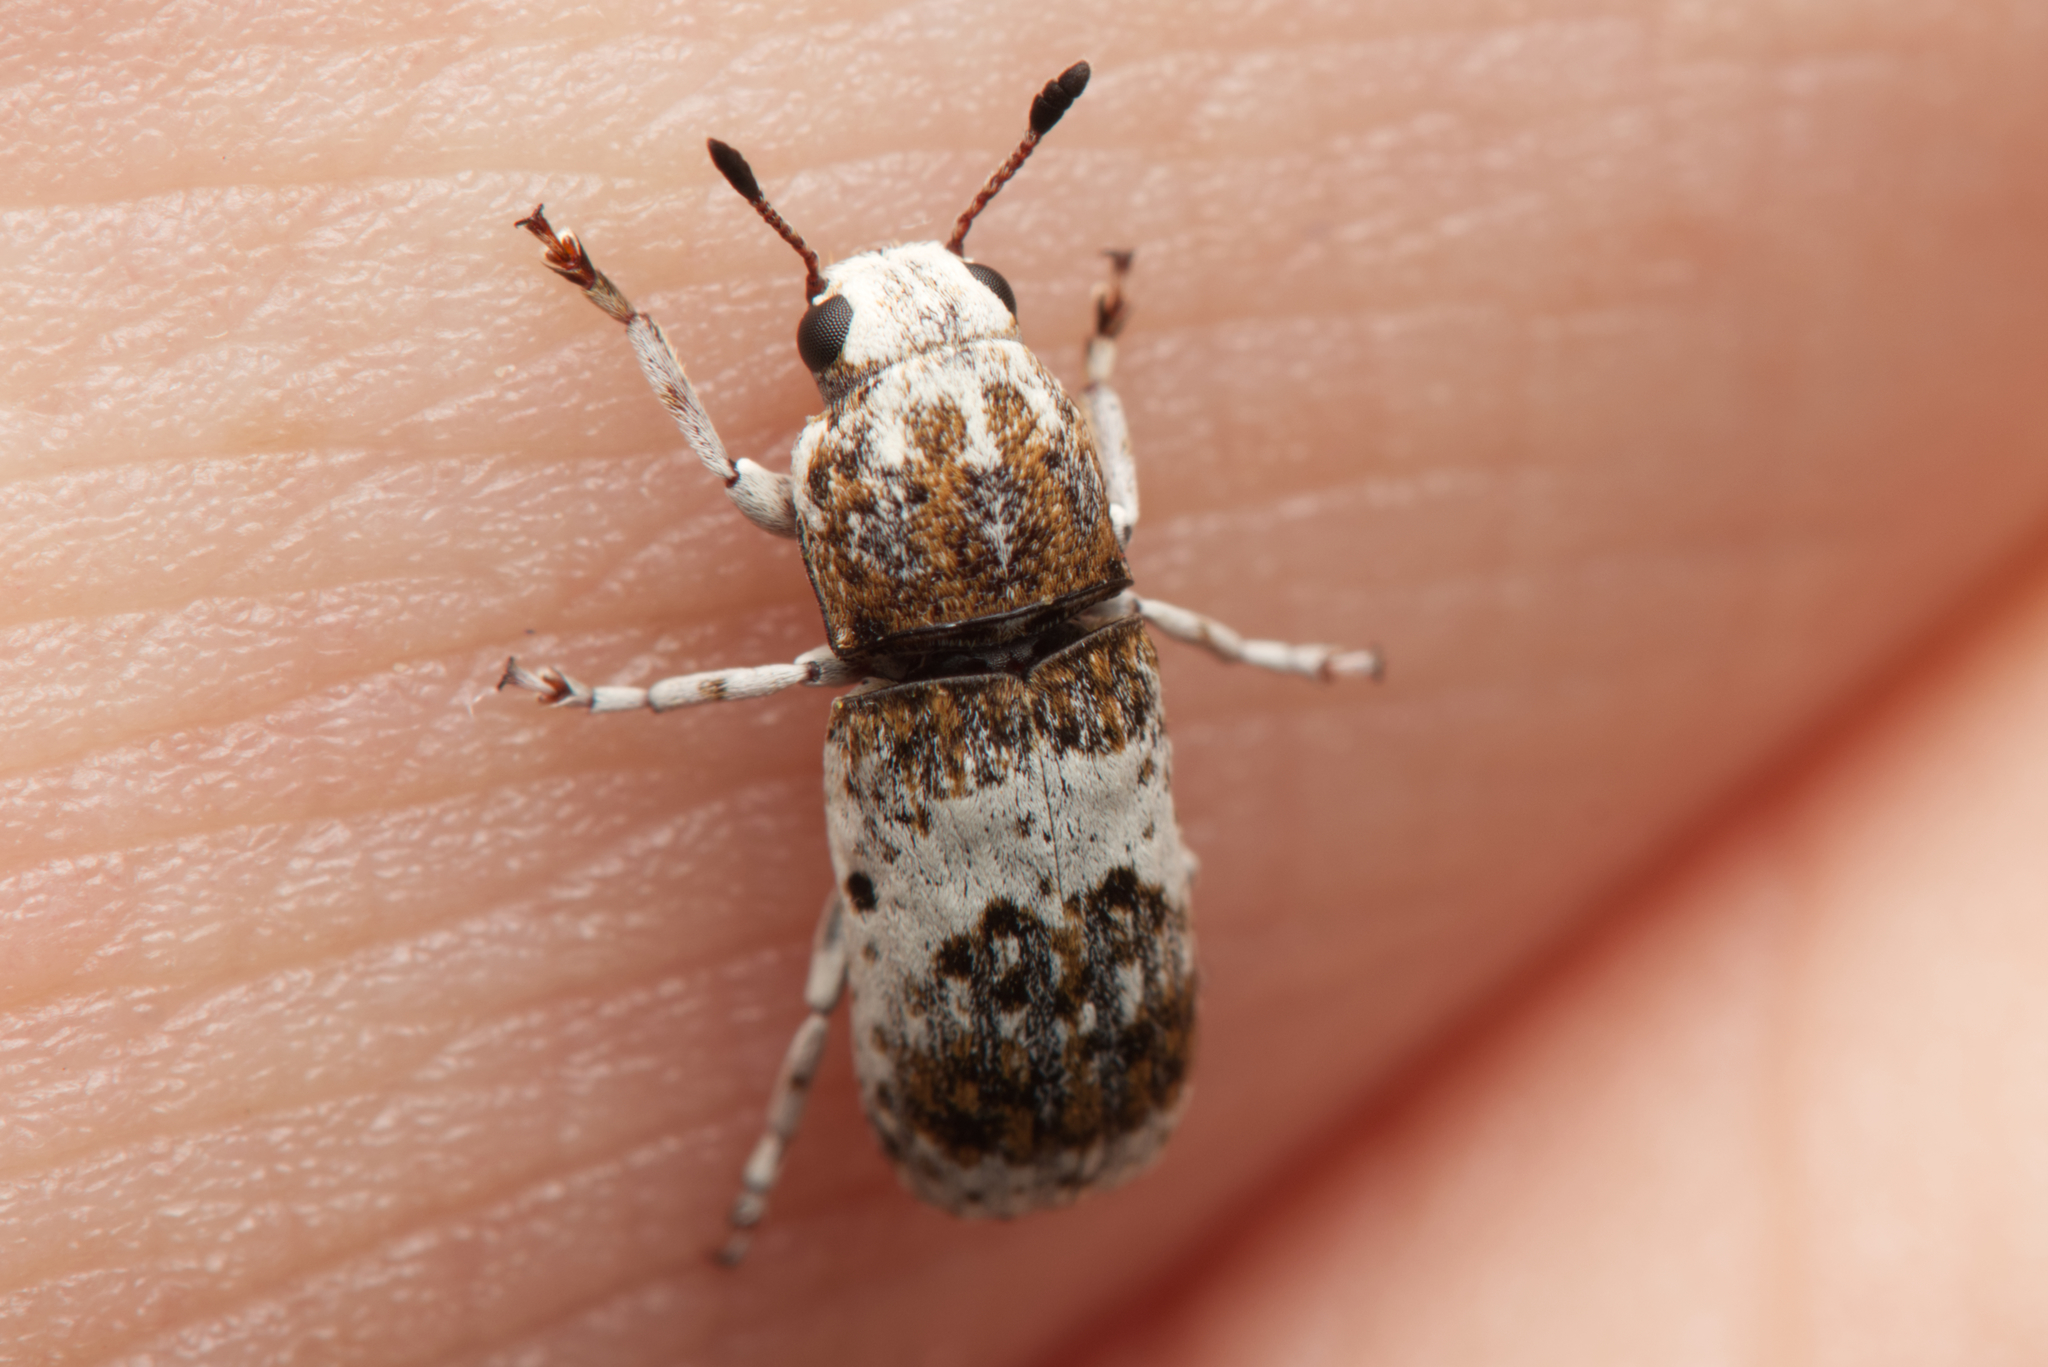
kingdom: Animalia
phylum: Arthropoda
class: Insecta
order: Coleoptera
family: Anthribidae
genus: Ozotomerus
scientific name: Ozotomerus bipunctatus
